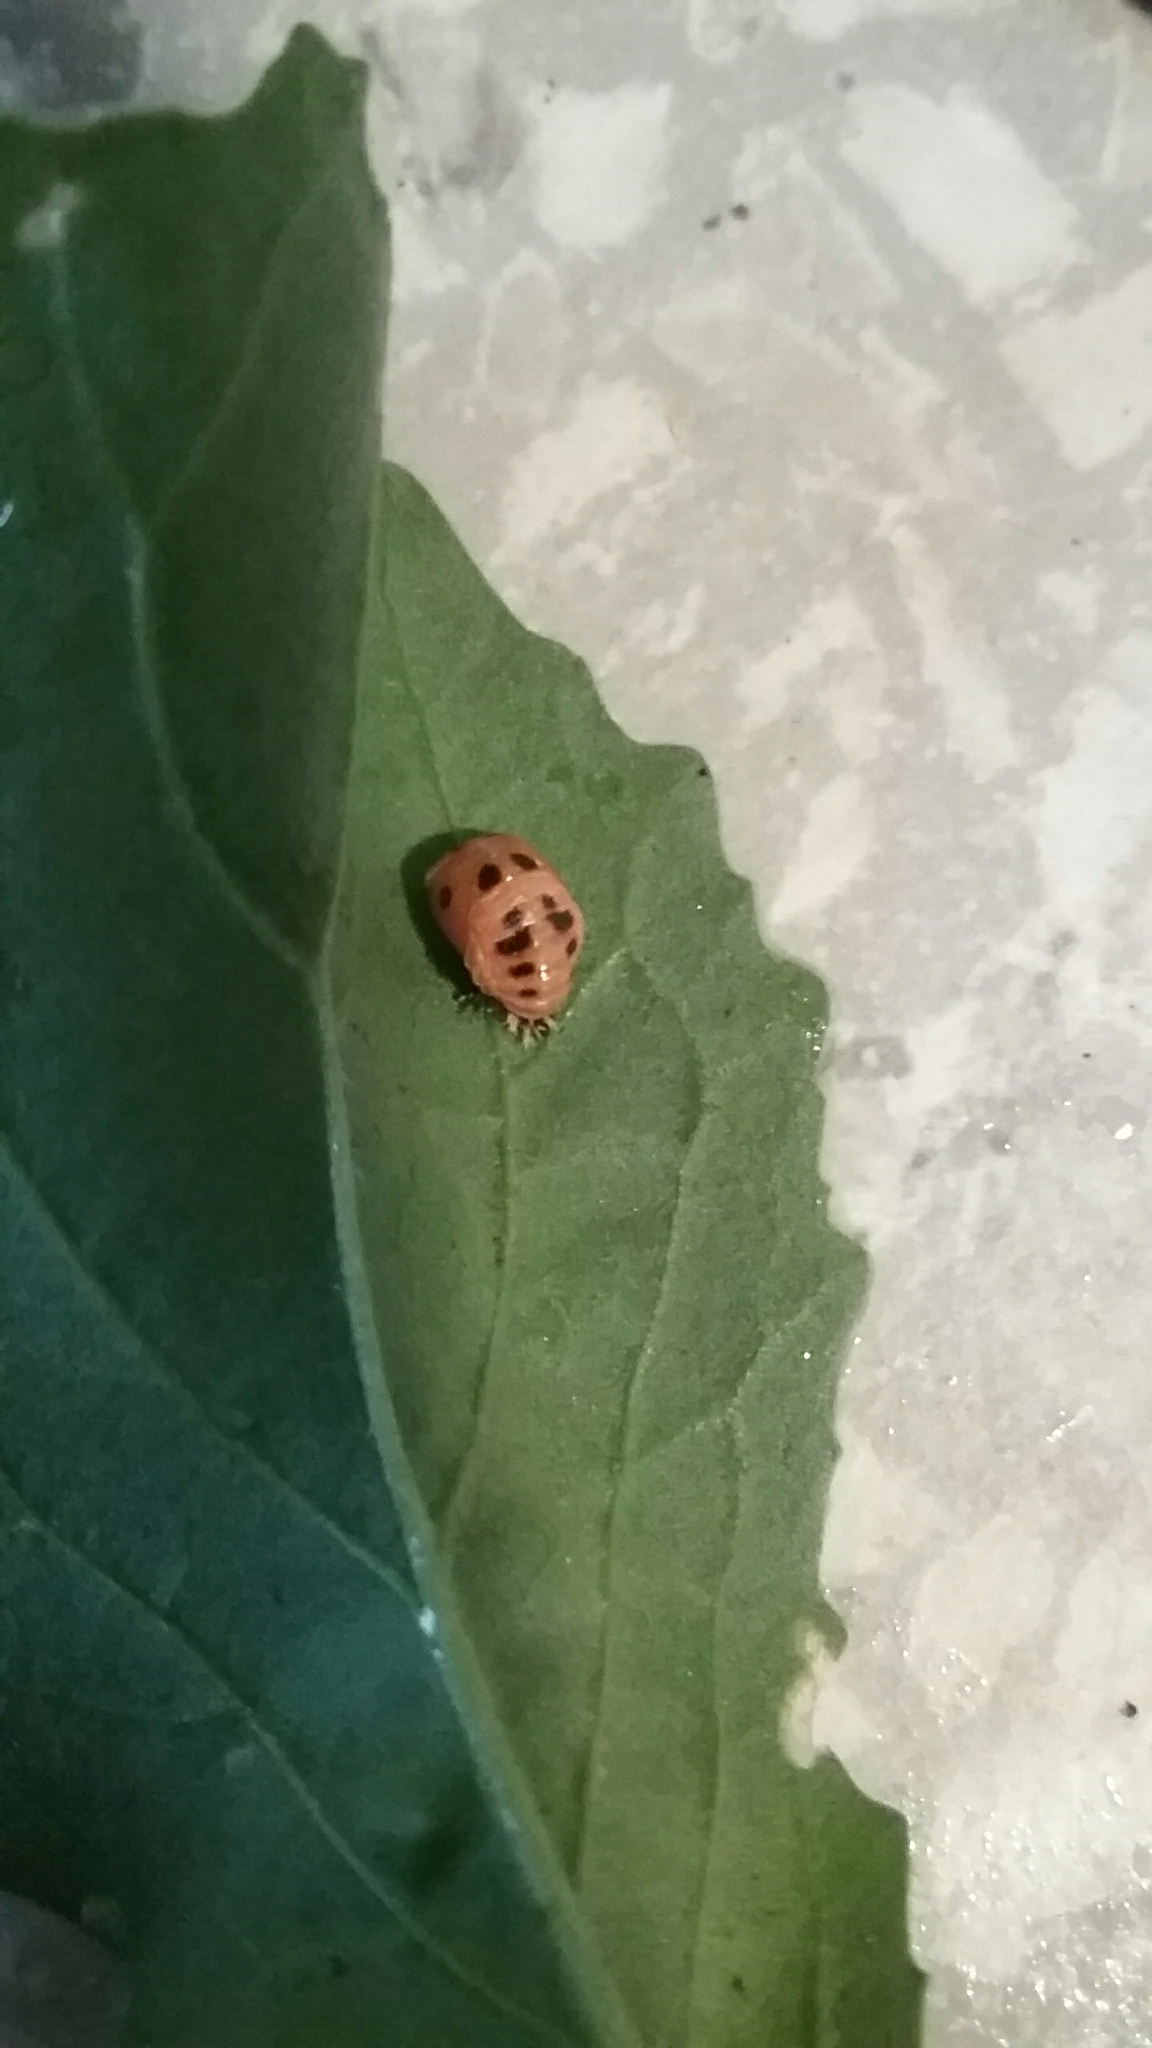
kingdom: Animalia
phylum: Arthropoda
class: Insecta
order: Coleoptera
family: Coccinellidae
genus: Harmonia
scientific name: Harmonia axyridis
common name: Harlequin ladybird
